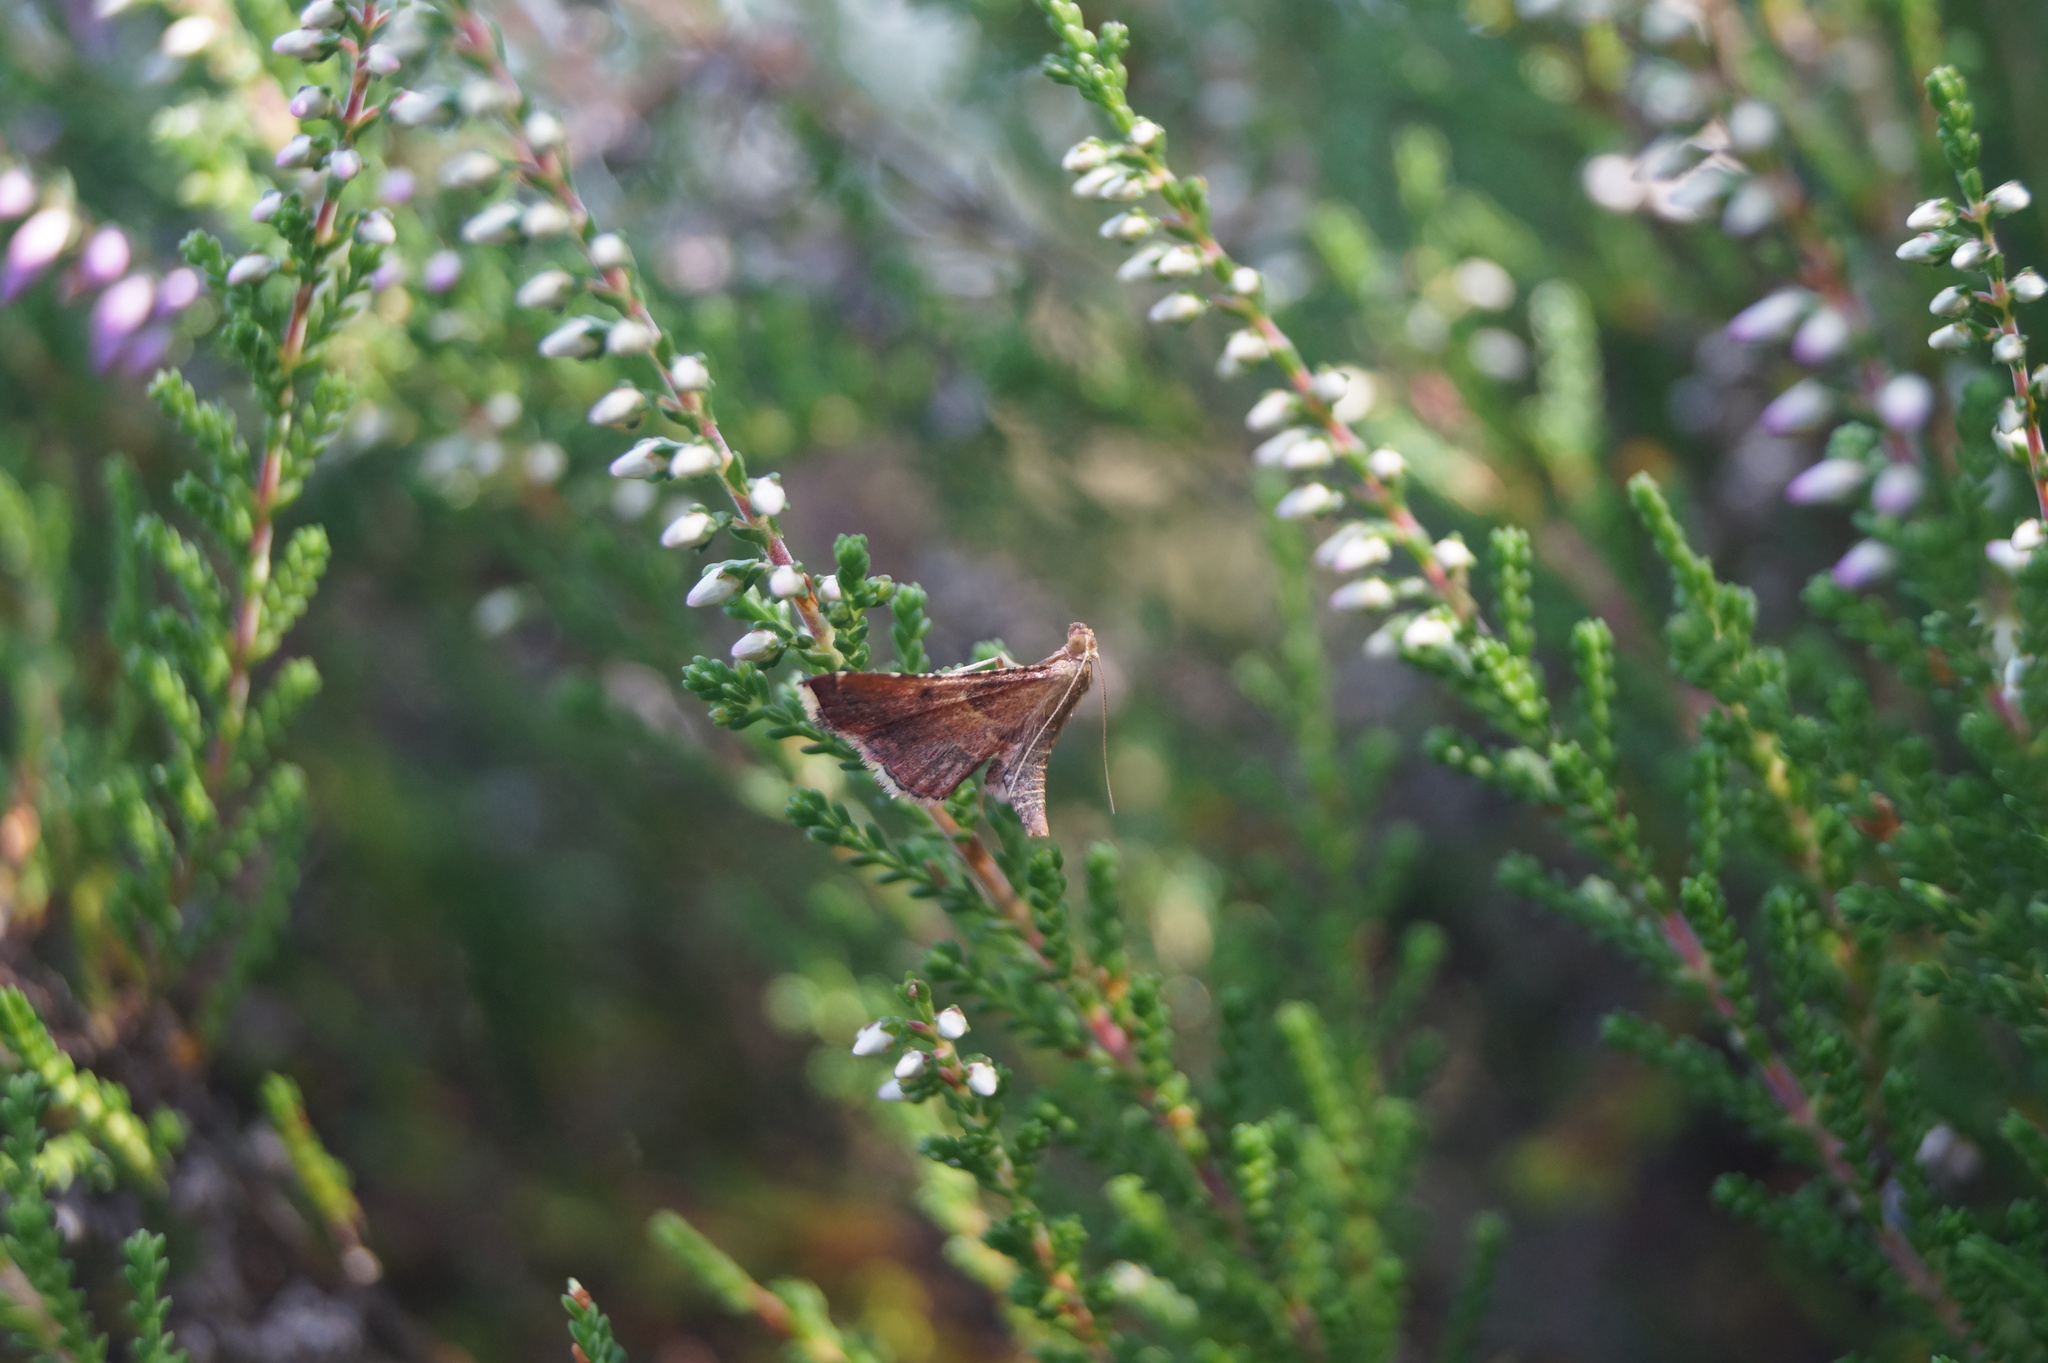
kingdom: Animalia
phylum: Arthropoda
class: Insecta
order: Lepidoptera
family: Pyralidae
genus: Endotricha
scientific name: Endotricha flammealis
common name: Rosy tabby
